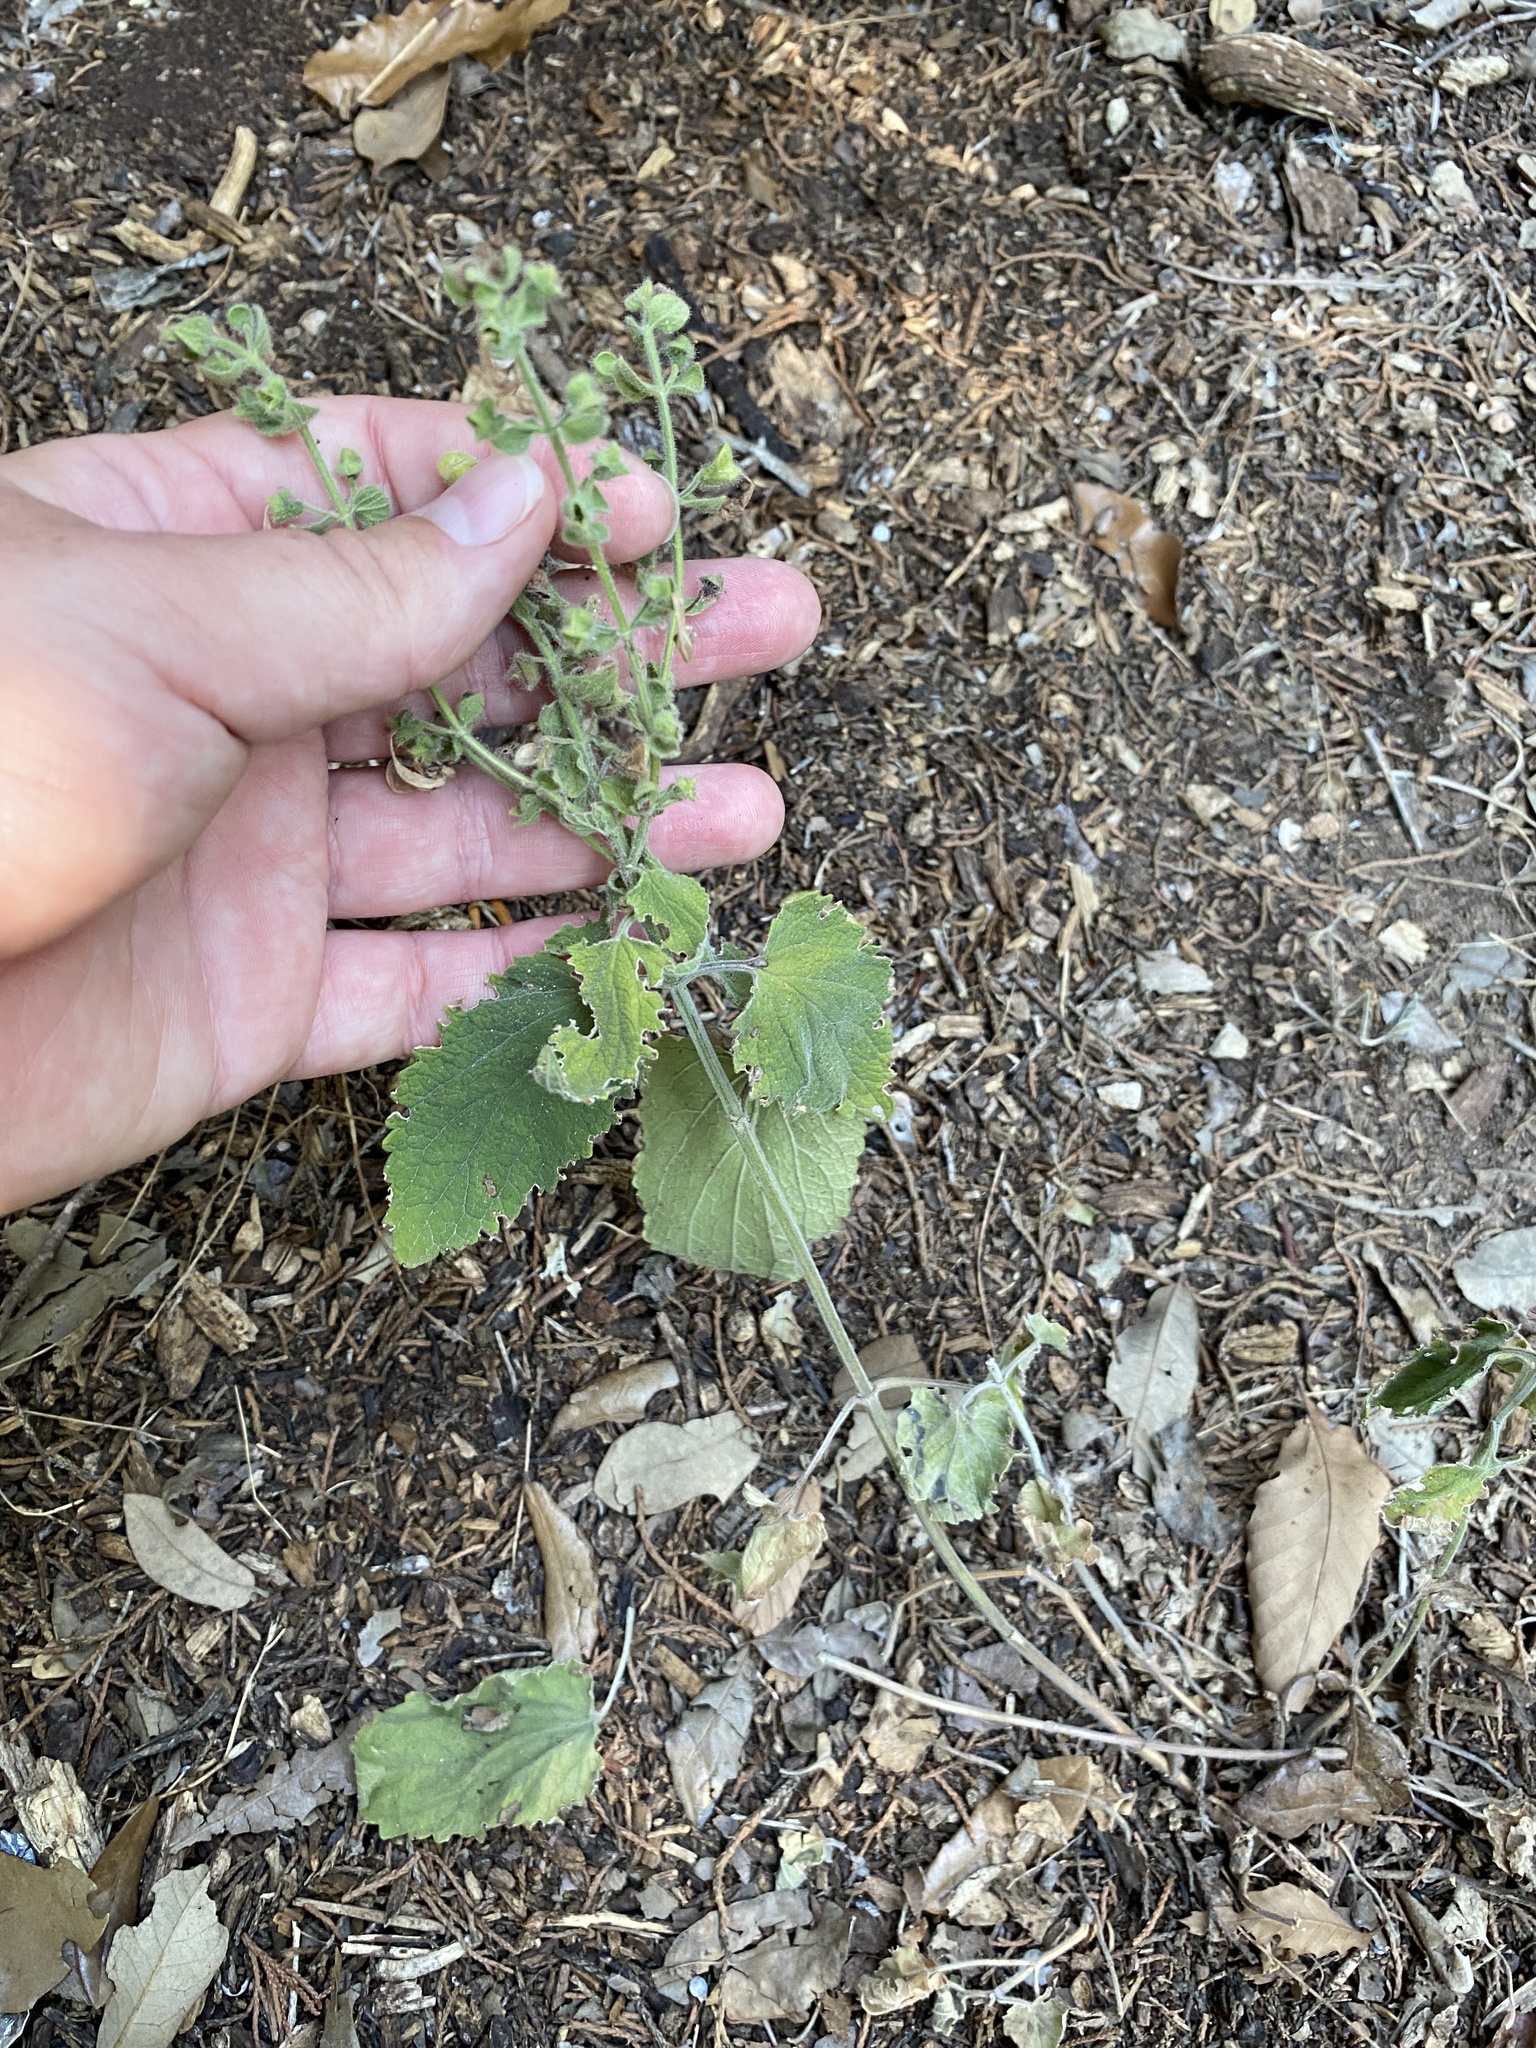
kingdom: Plantae
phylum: Tracheophyta
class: Magnoliopsida
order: Lamiales
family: Lamiaceae
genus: Scutellaria
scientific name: Scutellaria ovata
